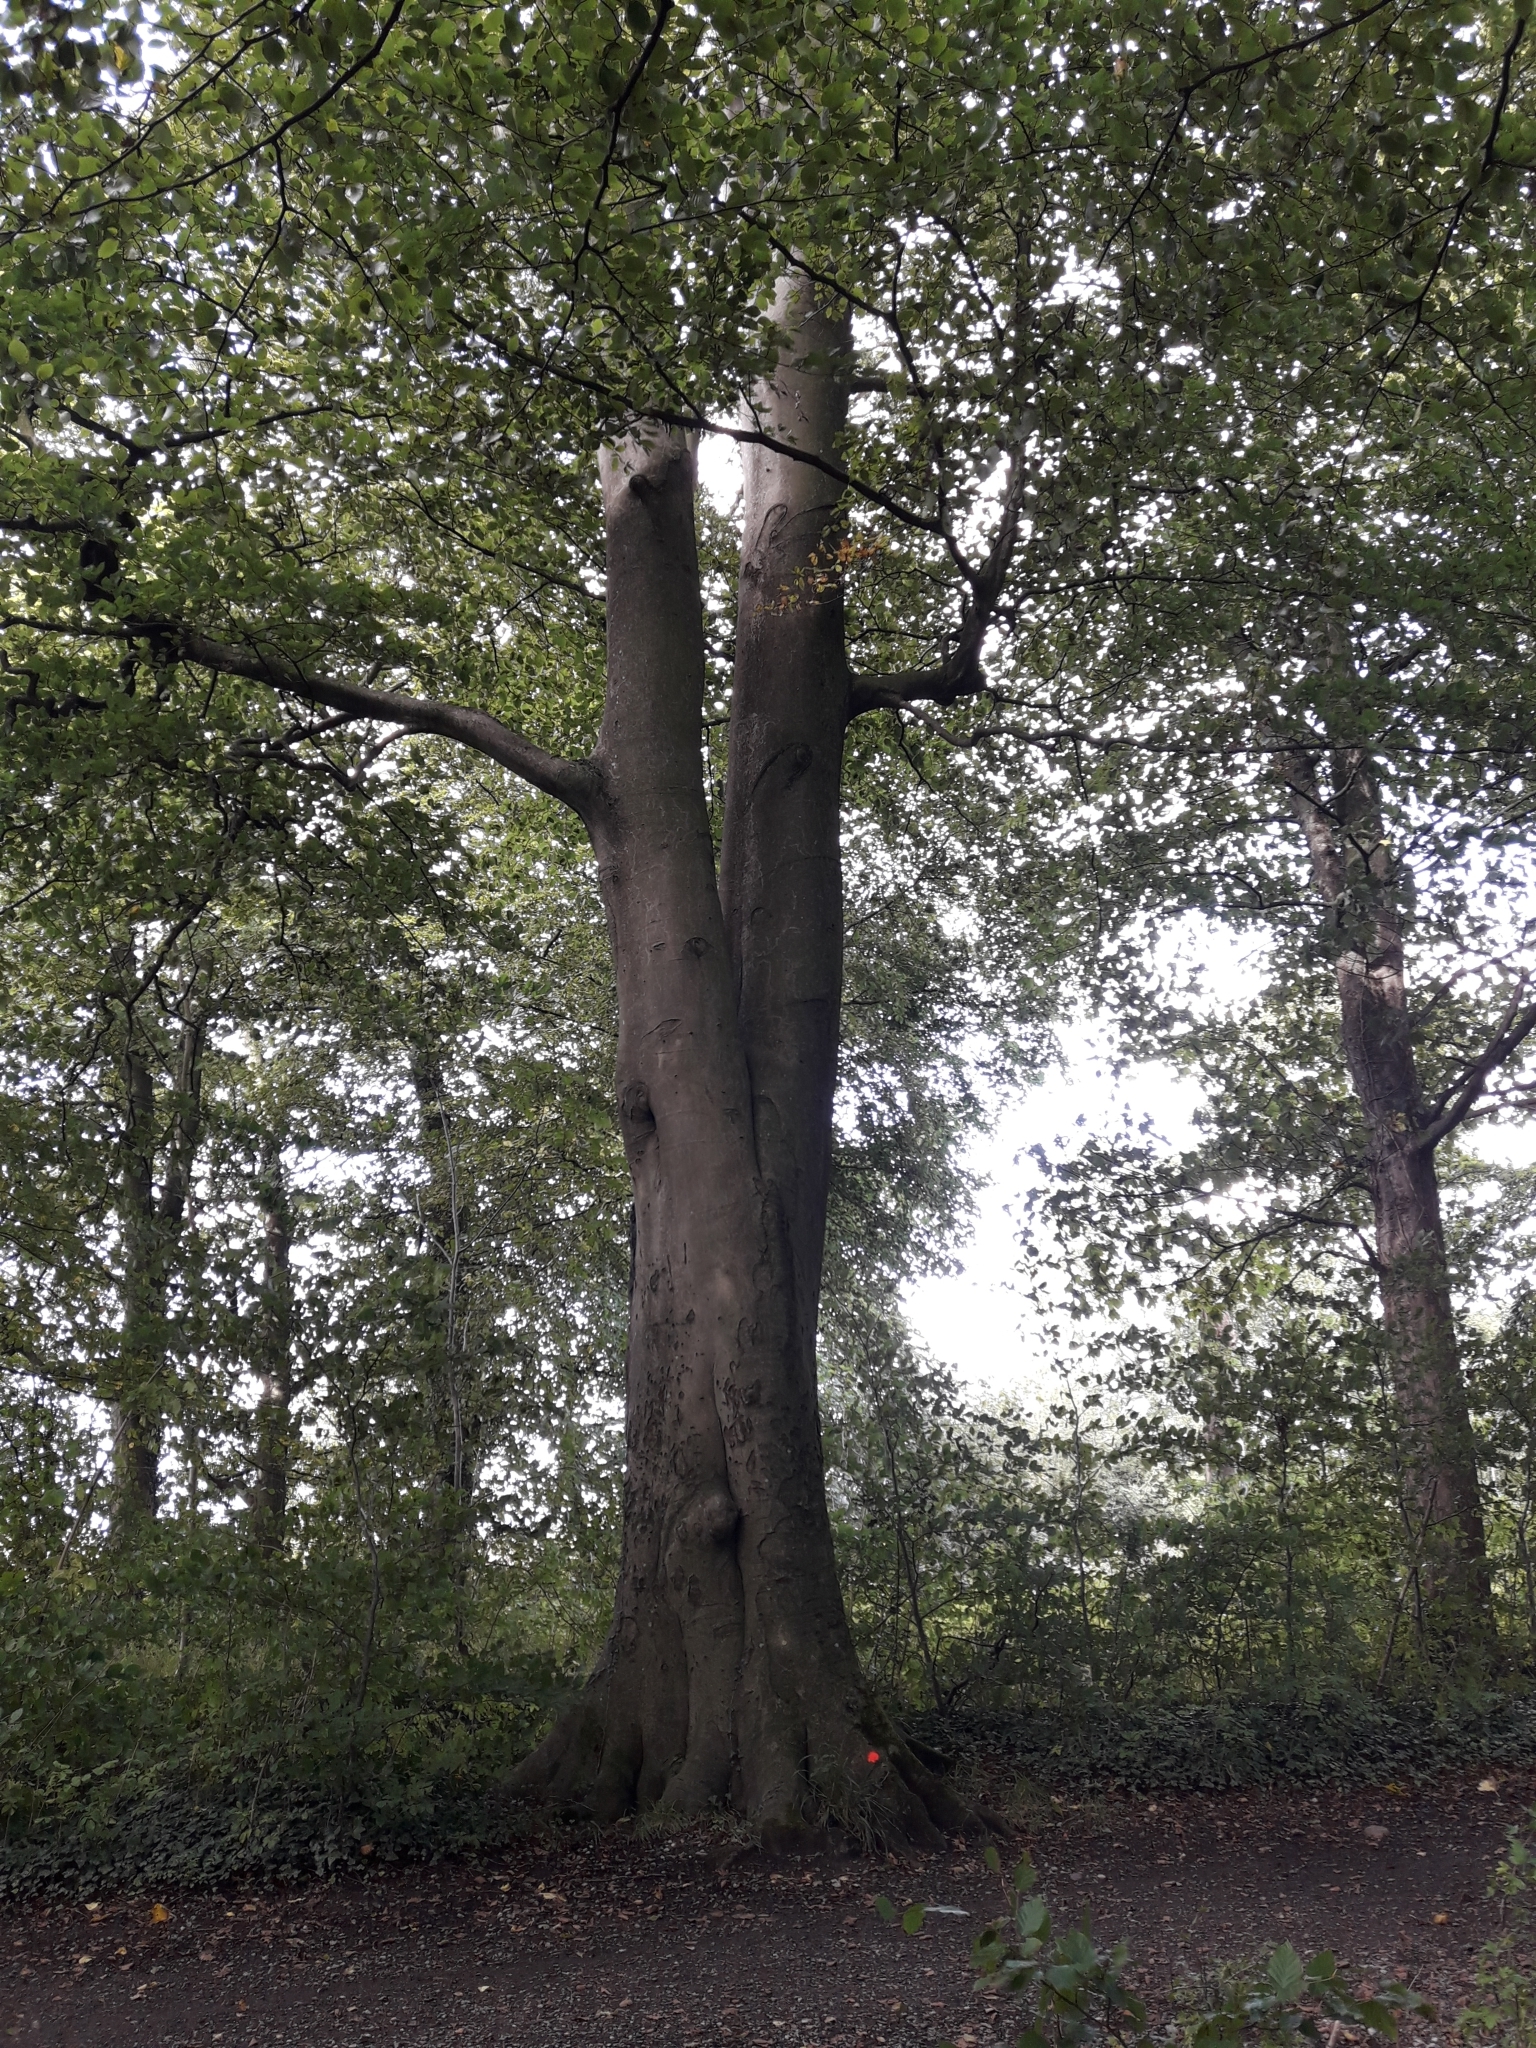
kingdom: Plantae
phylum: Tracheophyta
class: Magnoliopsida
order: Fagales
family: Fagaceae
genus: Fagus
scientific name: Fagus sylvatica
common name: Beech
